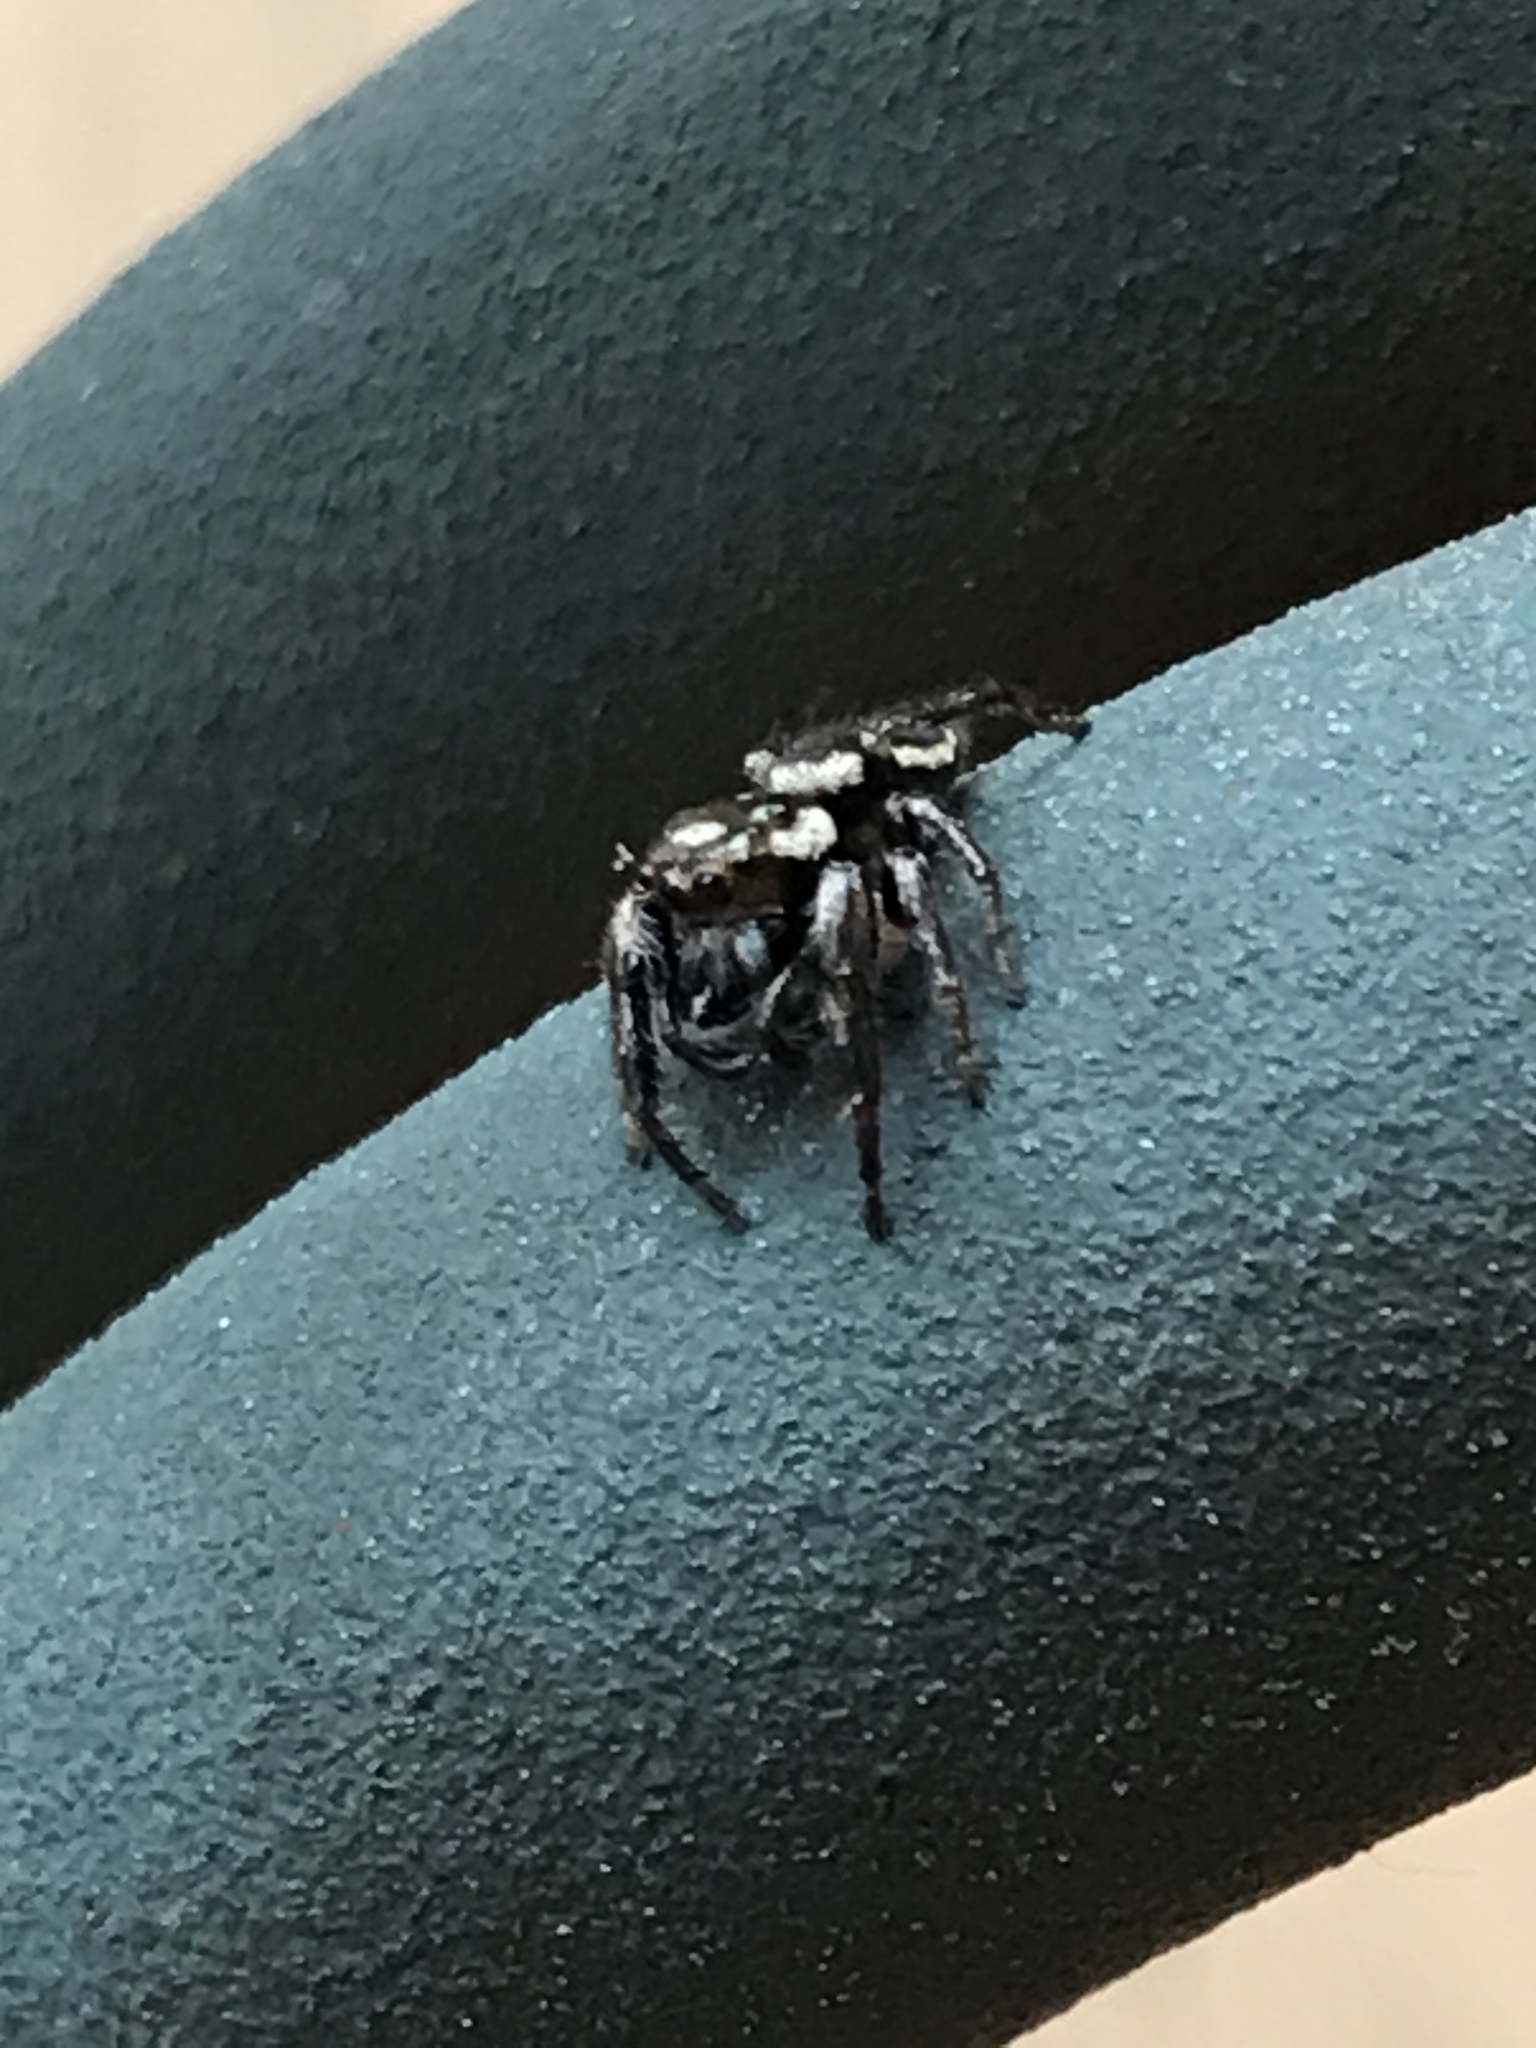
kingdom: Animalia
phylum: Arthropoda
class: Arachnida
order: Araneae
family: Salticidae
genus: Eris
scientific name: Eris militaris
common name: Bronze jumper
